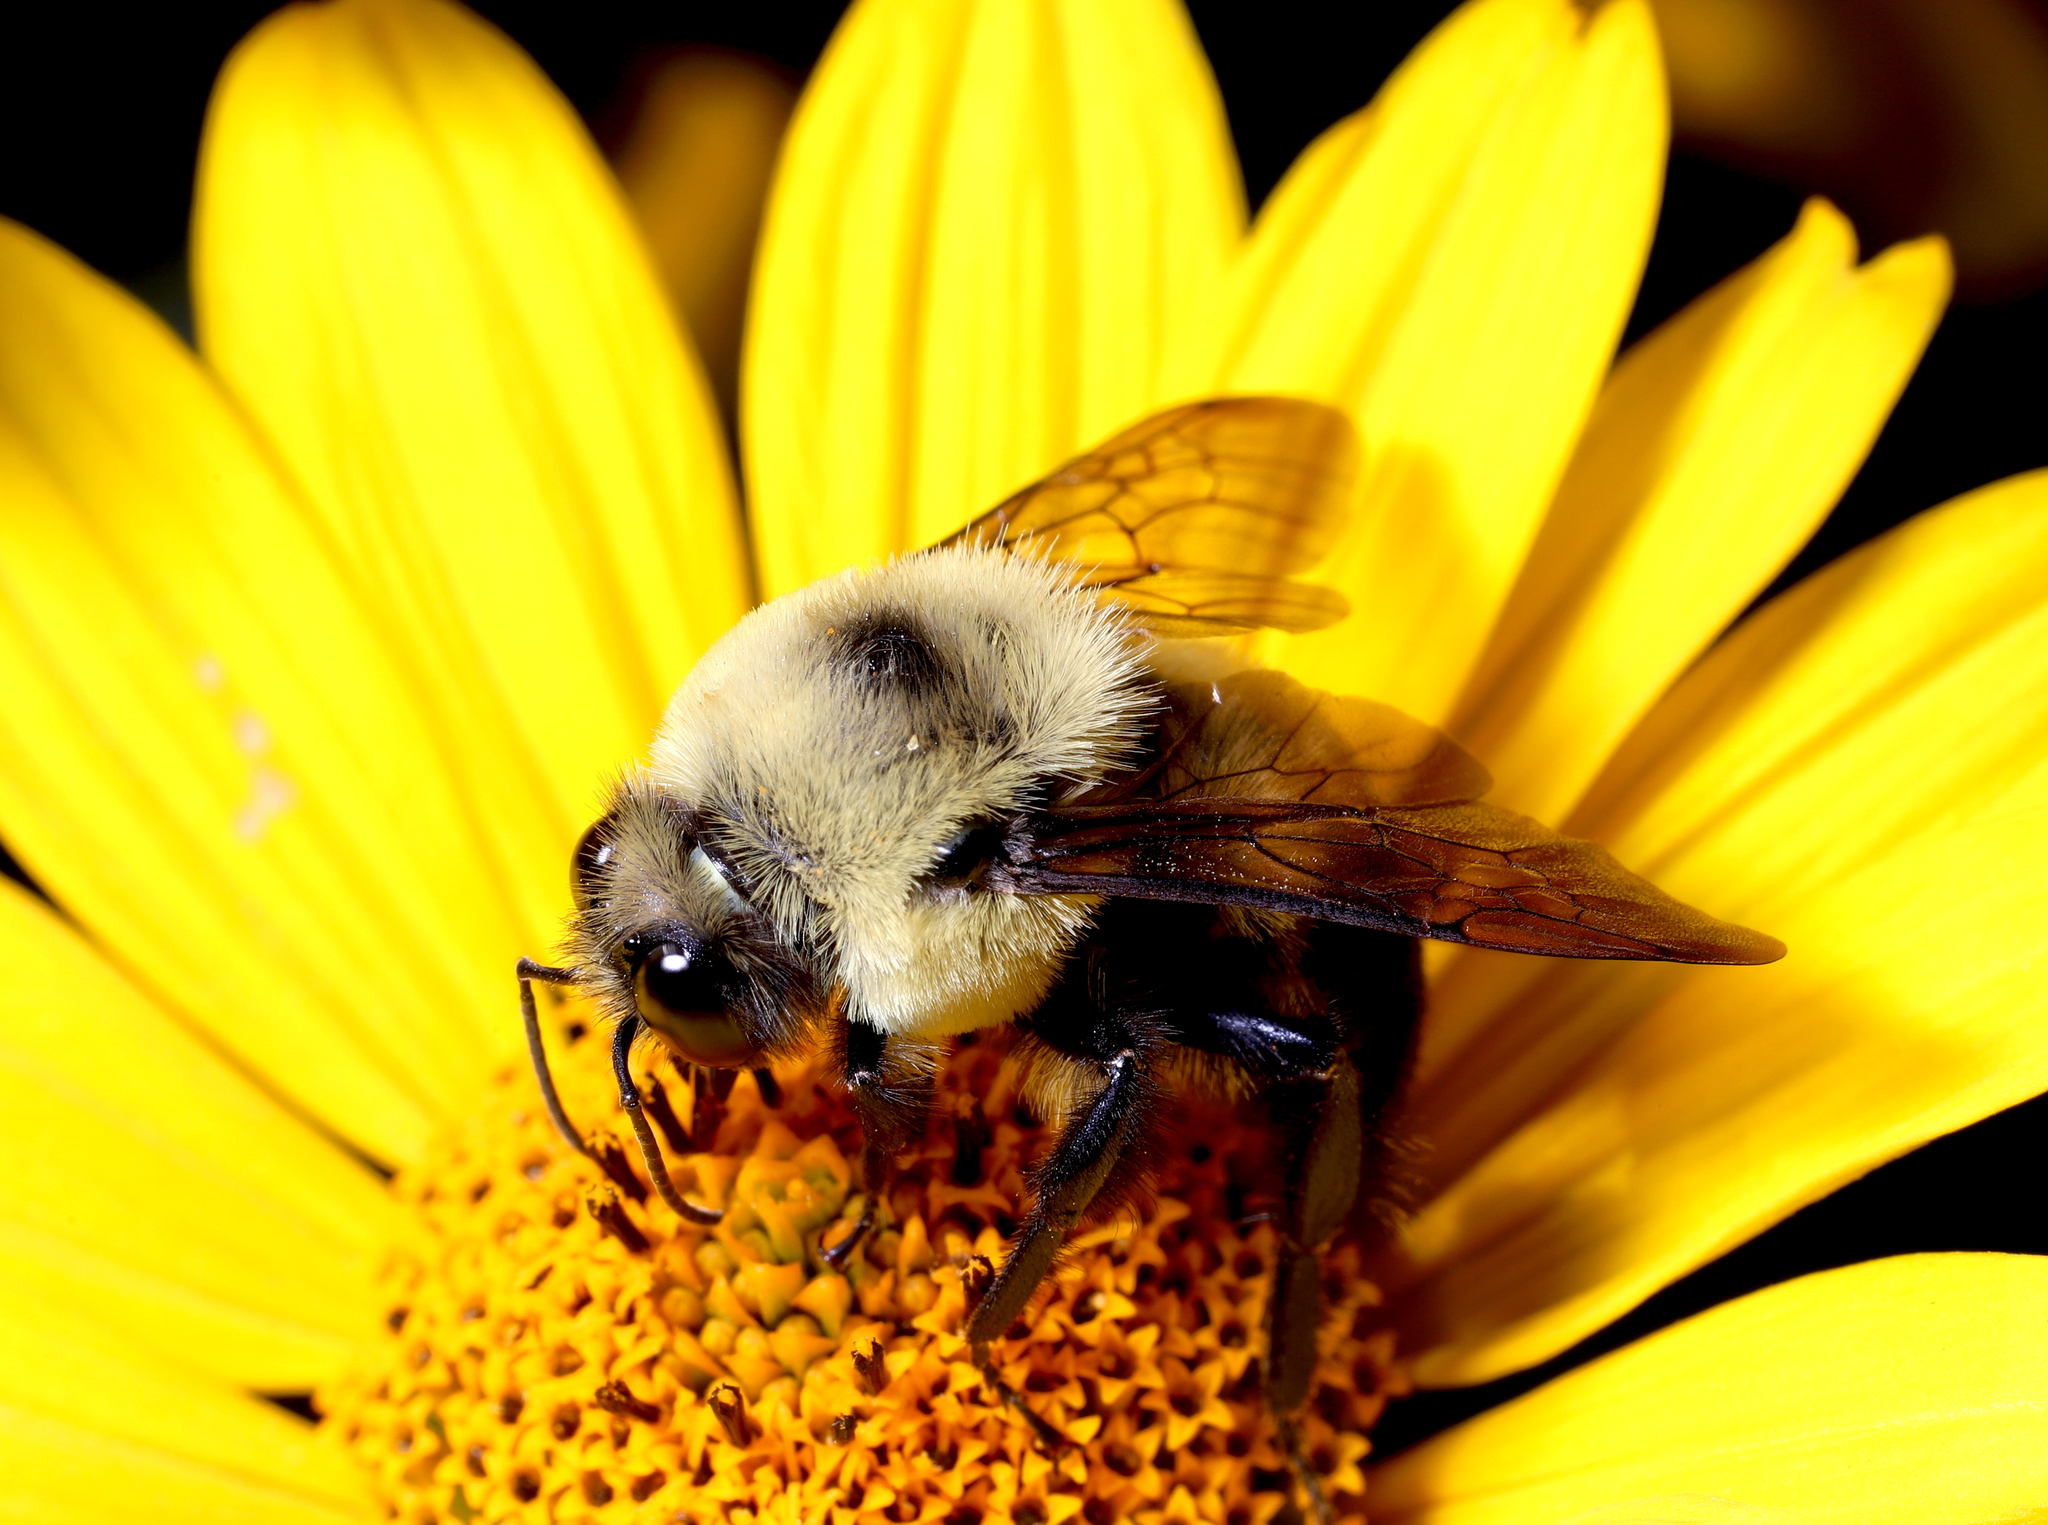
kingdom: Animalia
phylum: Arthropoda
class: Insecta
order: Hymenoptera
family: Apidae
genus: Bombus
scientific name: Bombus griseocollis
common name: Brown-belted bumble bee
